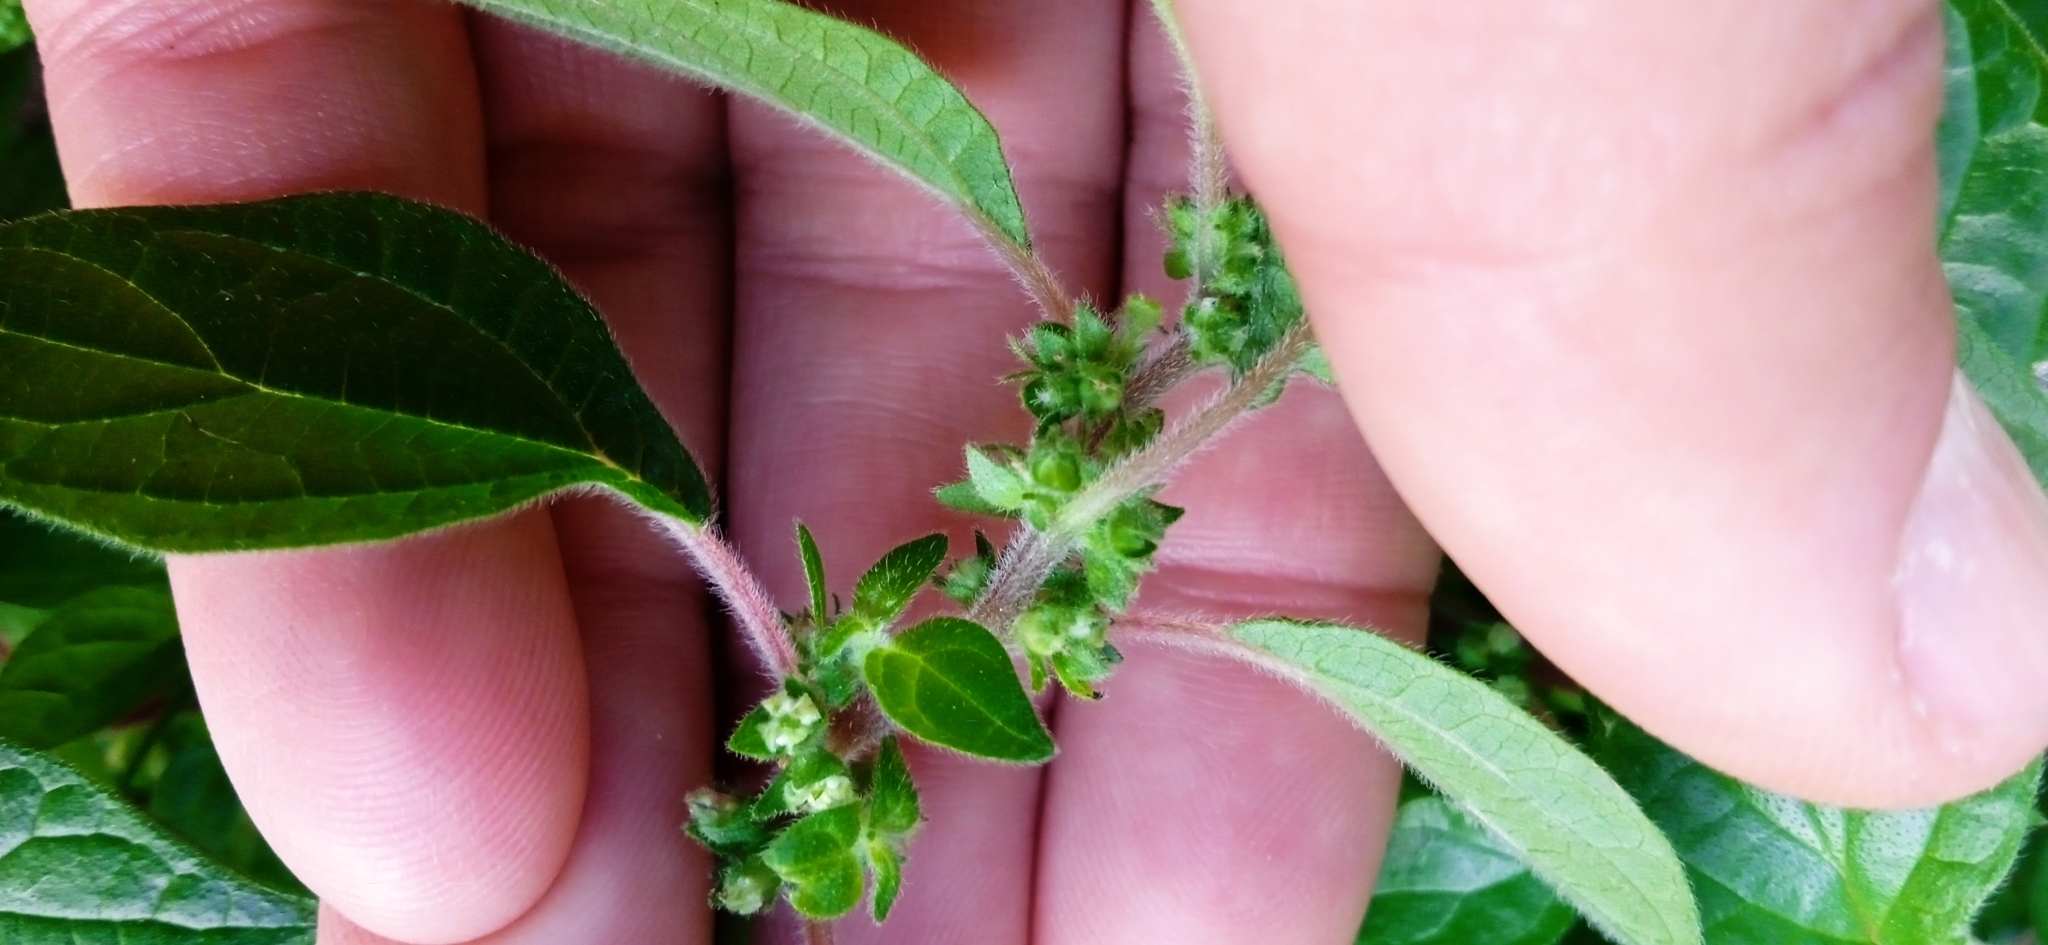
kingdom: Plantae
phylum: Tracheophyta
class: Magnoliopsida
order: Rosales
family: Urticaceae
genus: Parietaria
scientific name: Parietaria judaica
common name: Pellitory-of-the-wall
